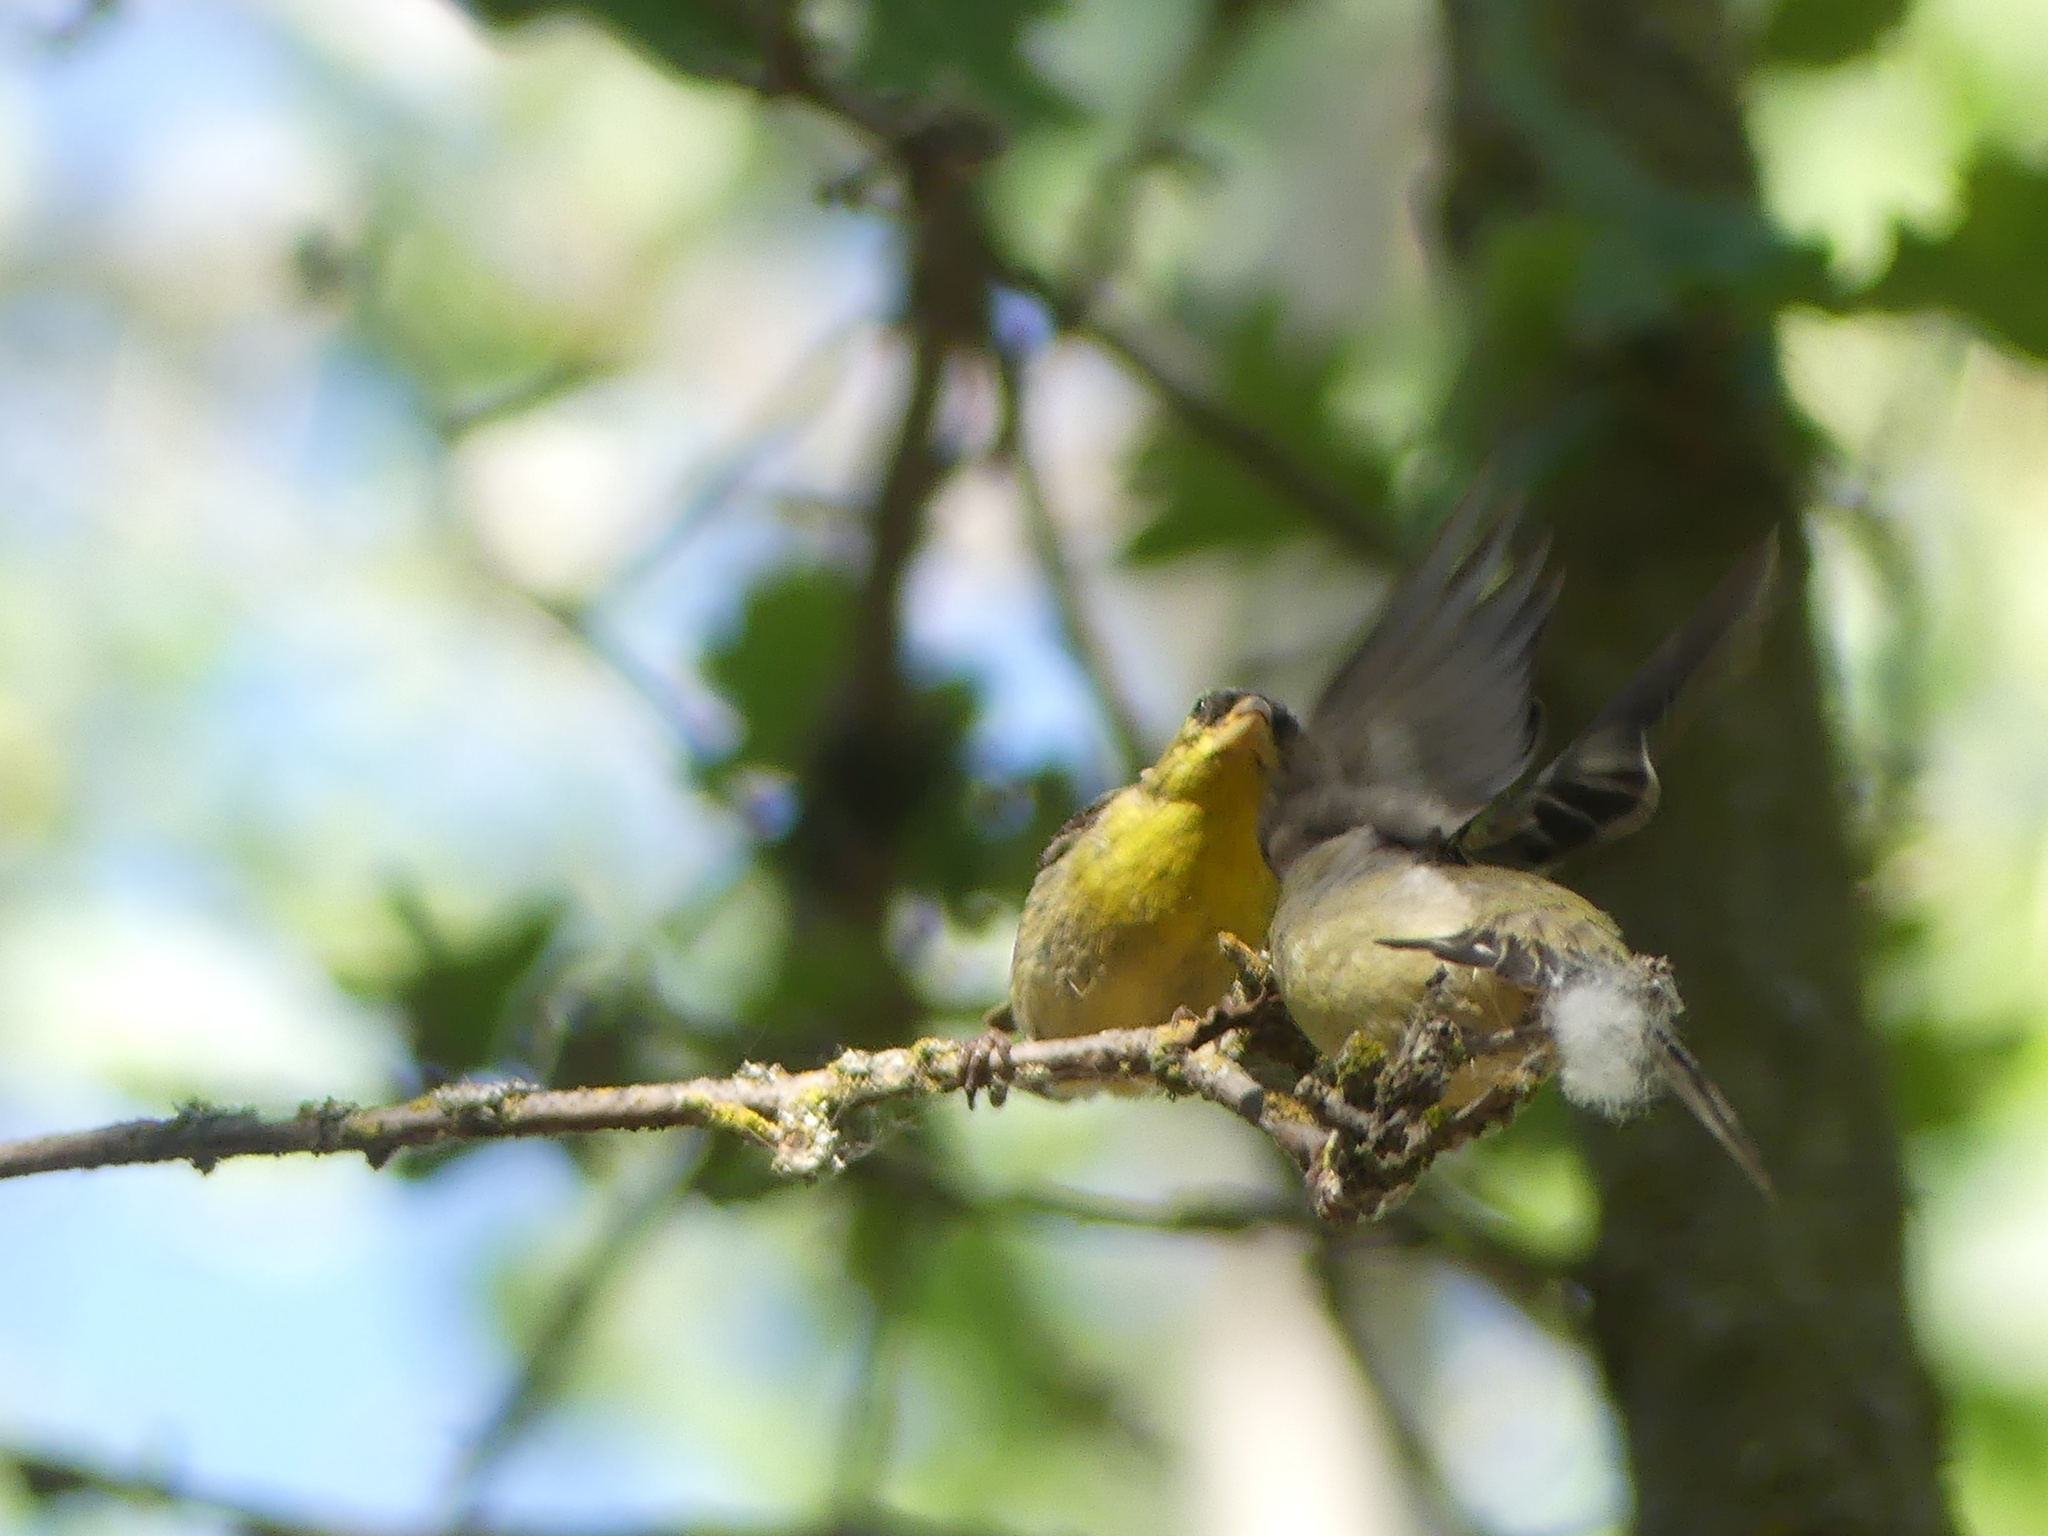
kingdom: Animalia
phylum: Chordata
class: Aves
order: Passeriformes
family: Fringillidae
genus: Spinus
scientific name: Spinus psaltria
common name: Lesser goldfinch
